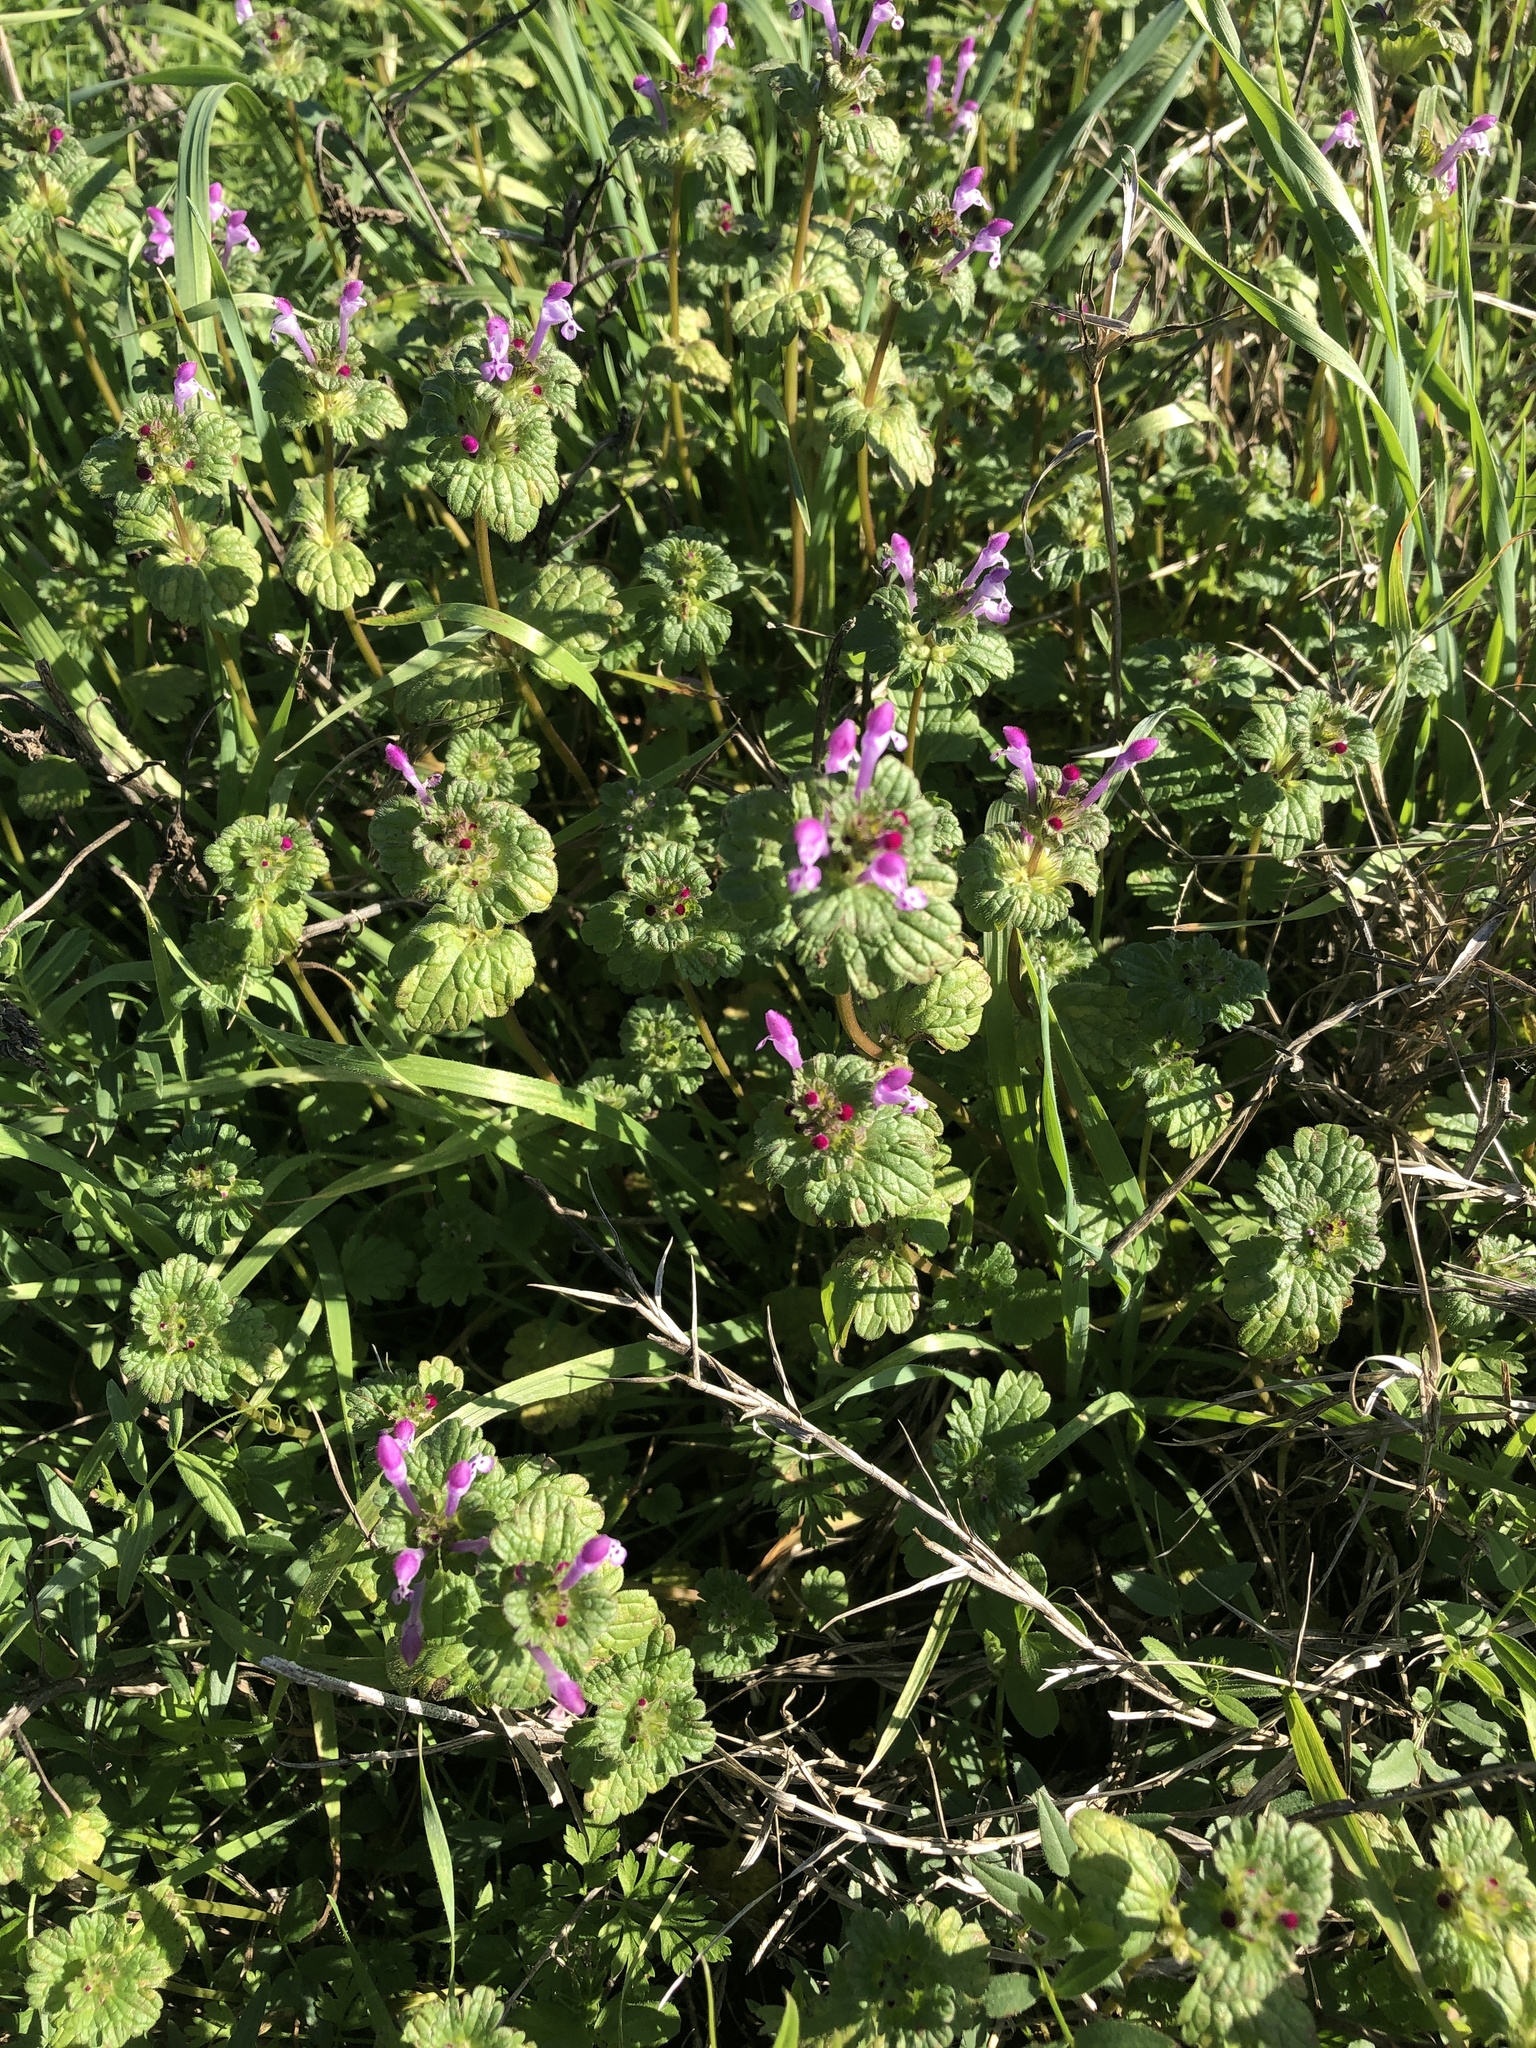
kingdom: Plantae
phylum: Tracheophyta
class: Magnoliopsida
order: Lamiales
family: Lamiaceae
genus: Lamium
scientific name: Lamium amplexicaule
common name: Henbit dead-nettle
